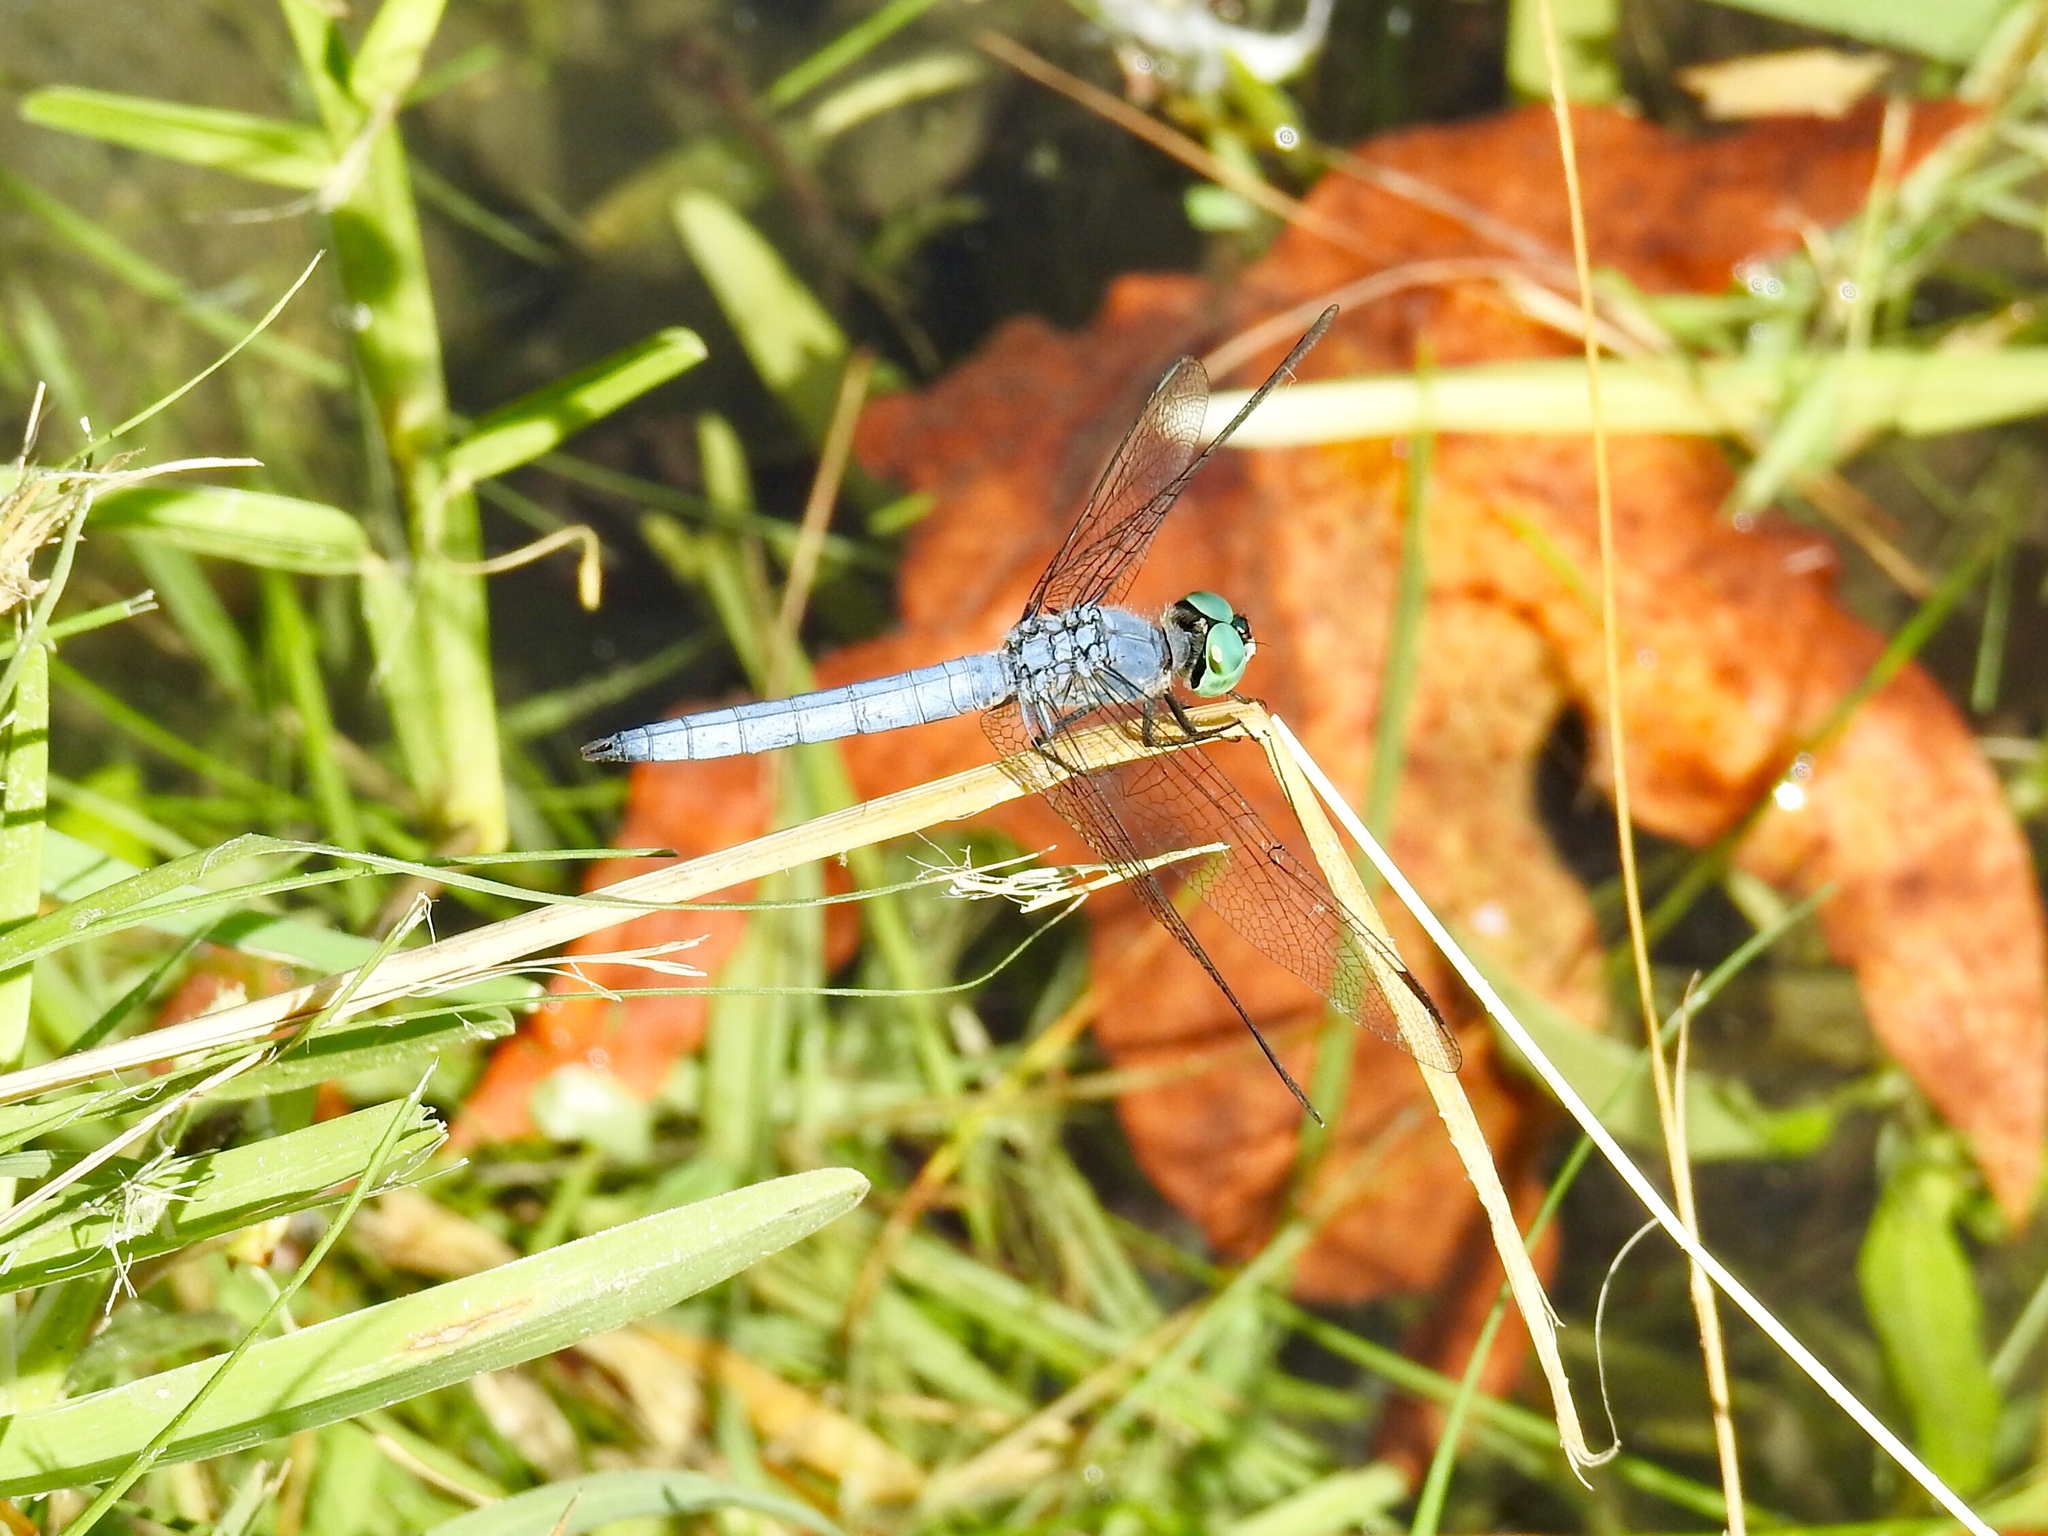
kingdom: Animalia
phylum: Arthropoda
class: Insecta
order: Odonata
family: Libellulidae
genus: Pachydiplax
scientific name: Pachydiplax longipennis
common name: Blue dasher
